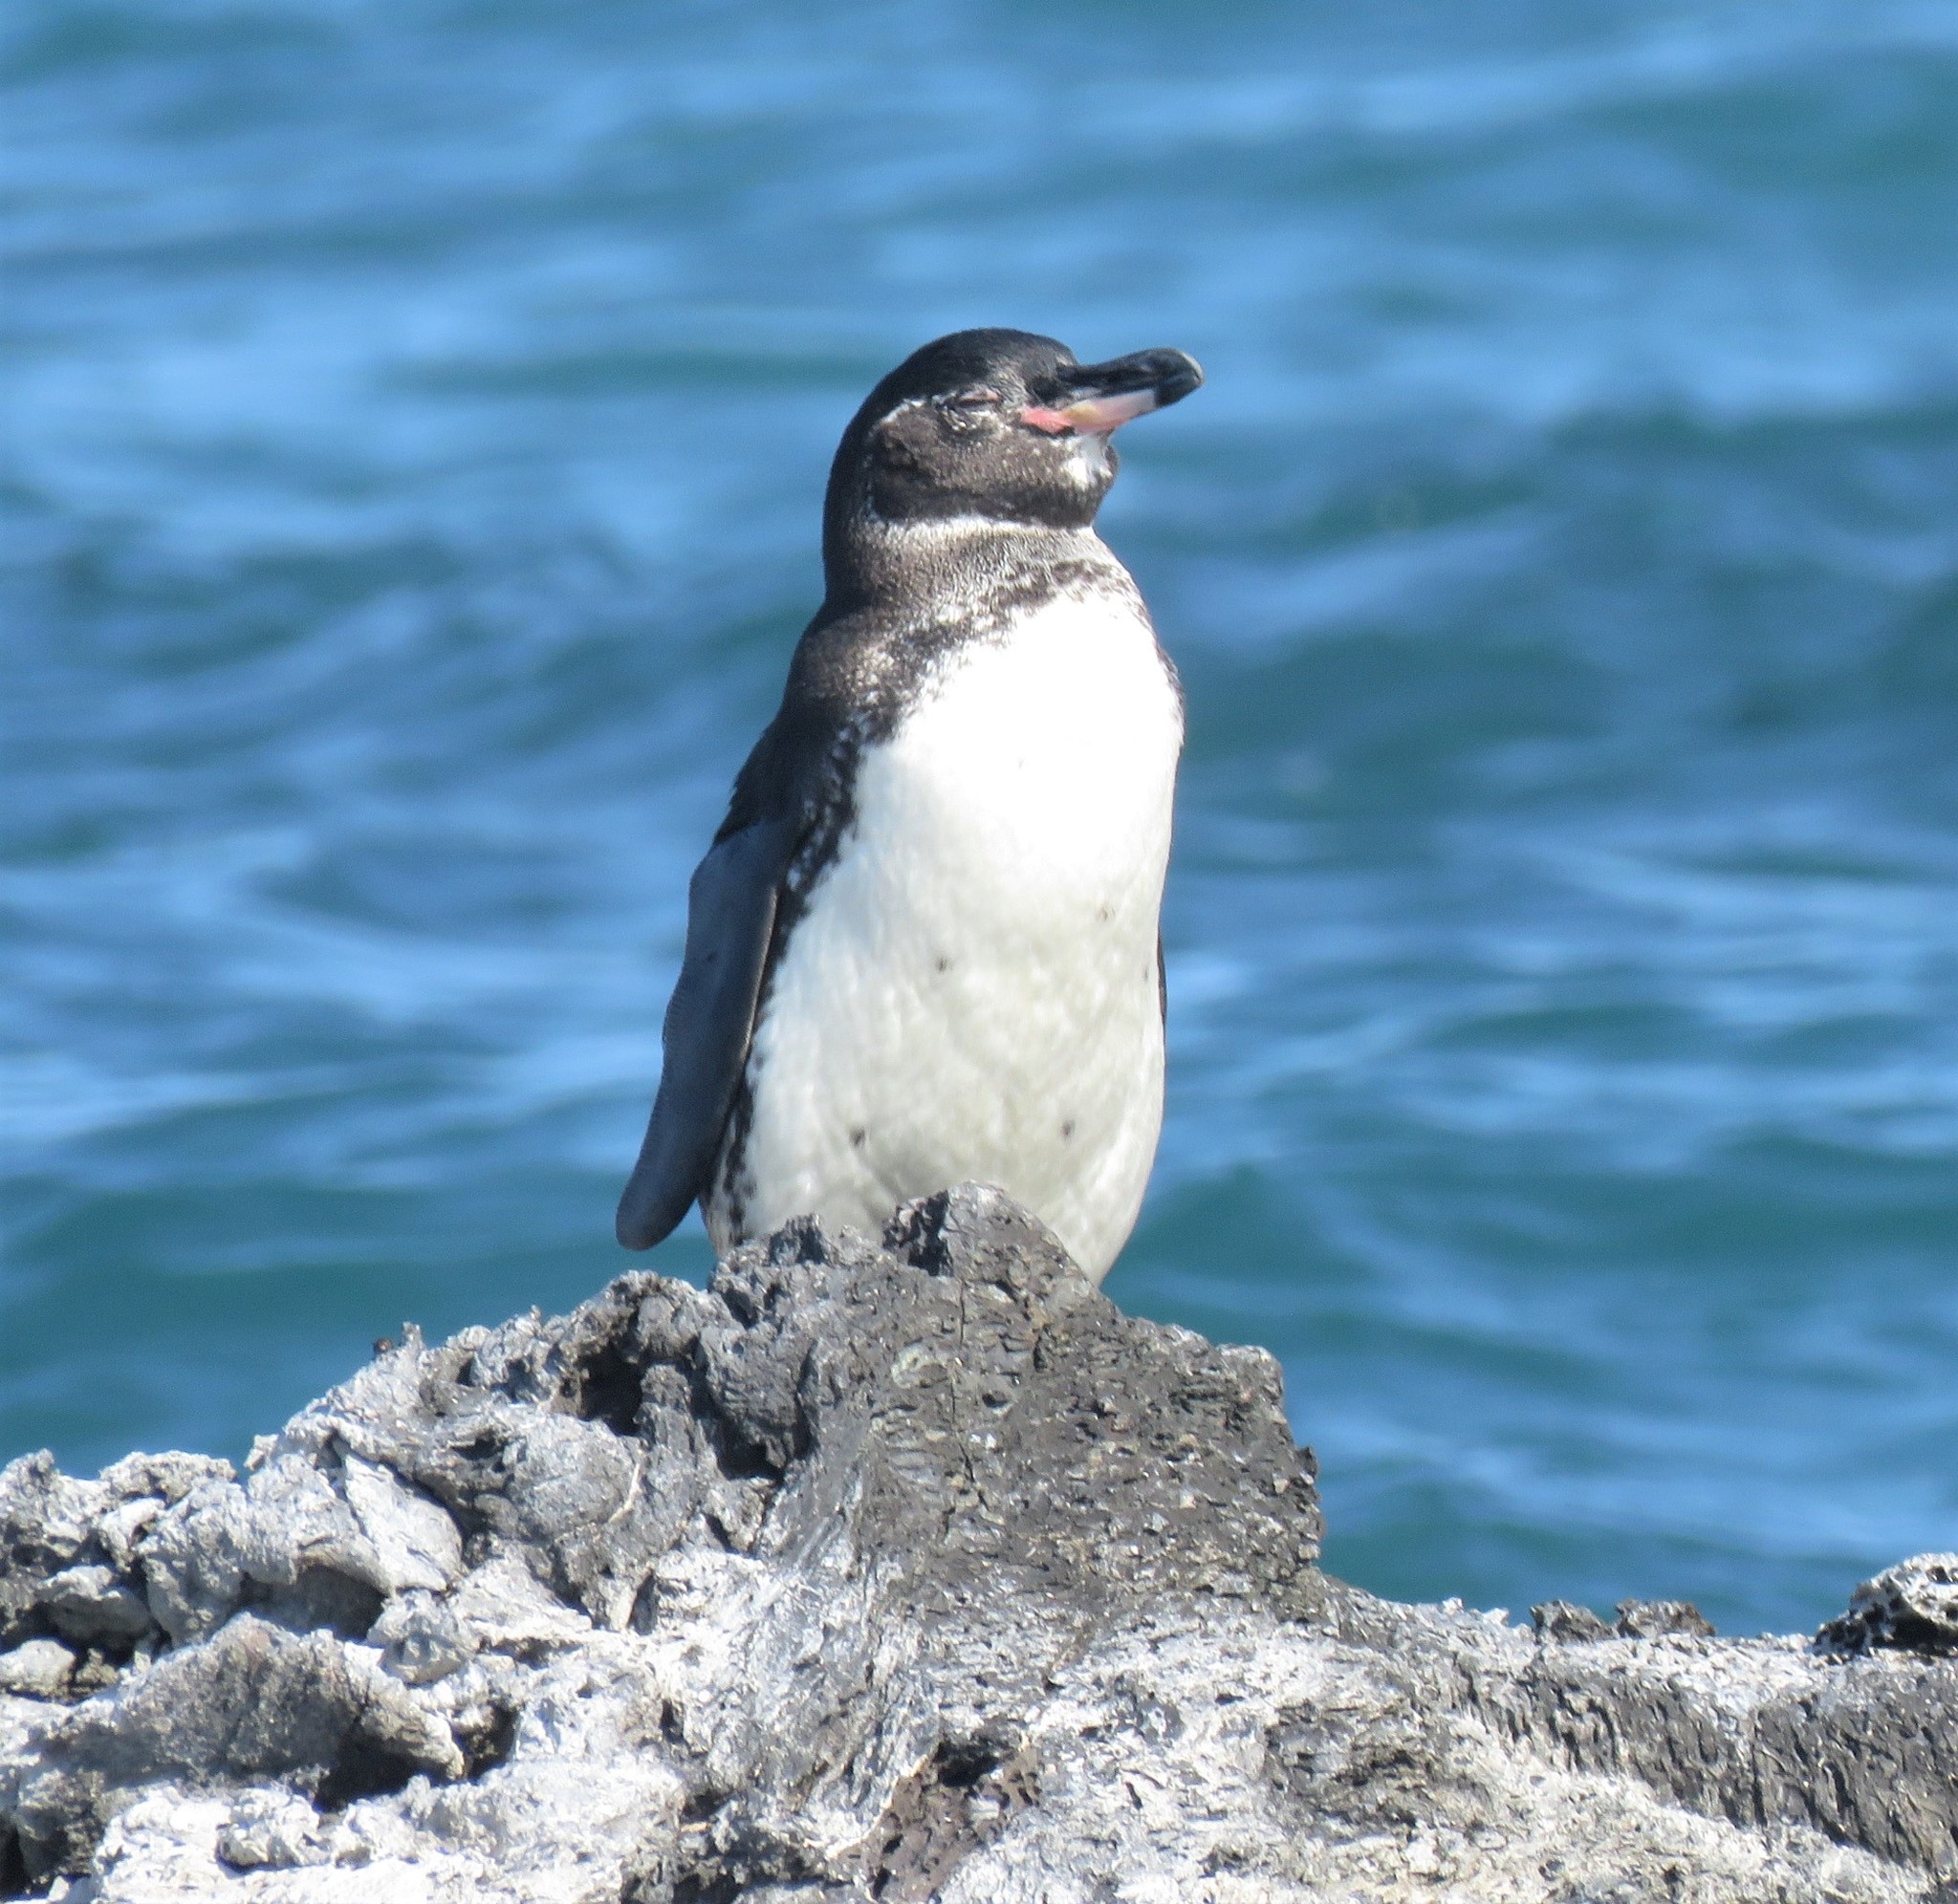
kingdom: Animalia
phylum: Chordata
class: Aves
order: Sphenisciformes
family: Spheniscidae
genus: Spheniscus
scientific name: Spheniscus mendiculus
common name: Galapagos penguin
